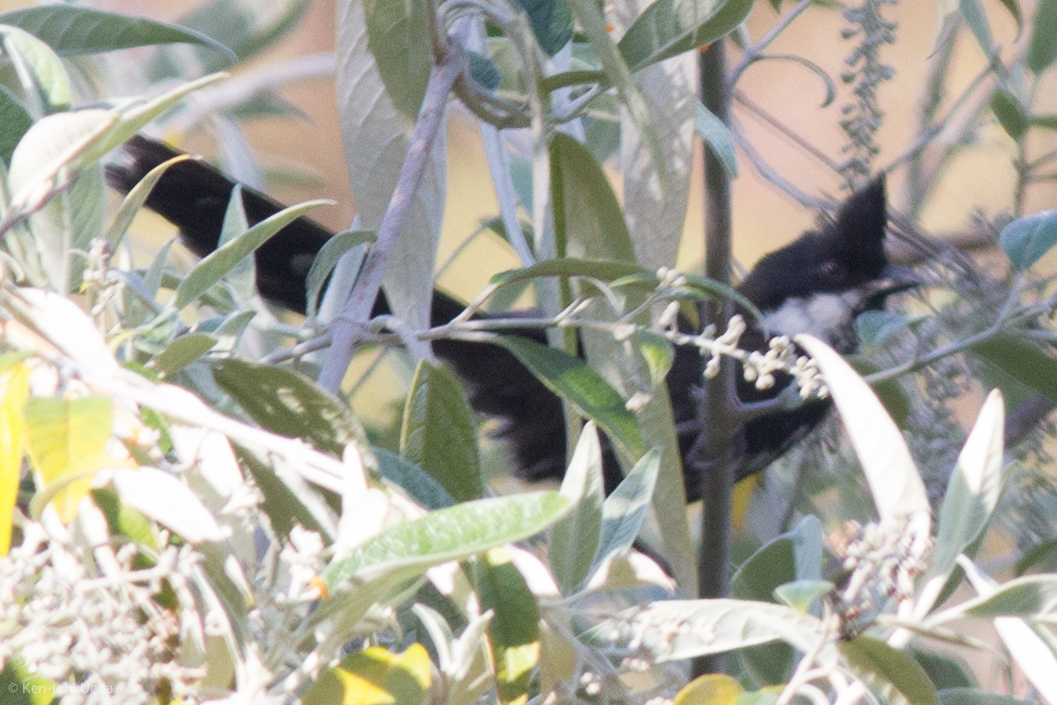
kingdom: Animalia
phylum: Chordata
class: Aves
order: Passeriformes
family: Psophodidae
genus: Psophodes
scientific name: Psophodes olivaceus
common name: Eastern whipbird
